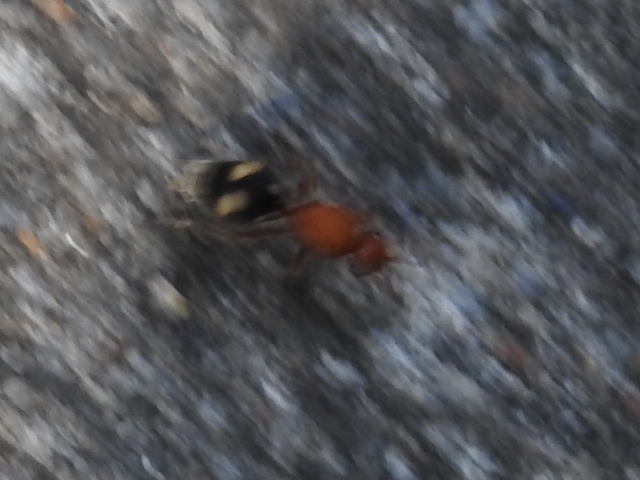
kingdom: Animalia
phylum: Arthropoda
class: Insecta
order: Hymenoptera
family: Mutillidae
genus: Dasymutilla
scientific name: Dasymutilla
